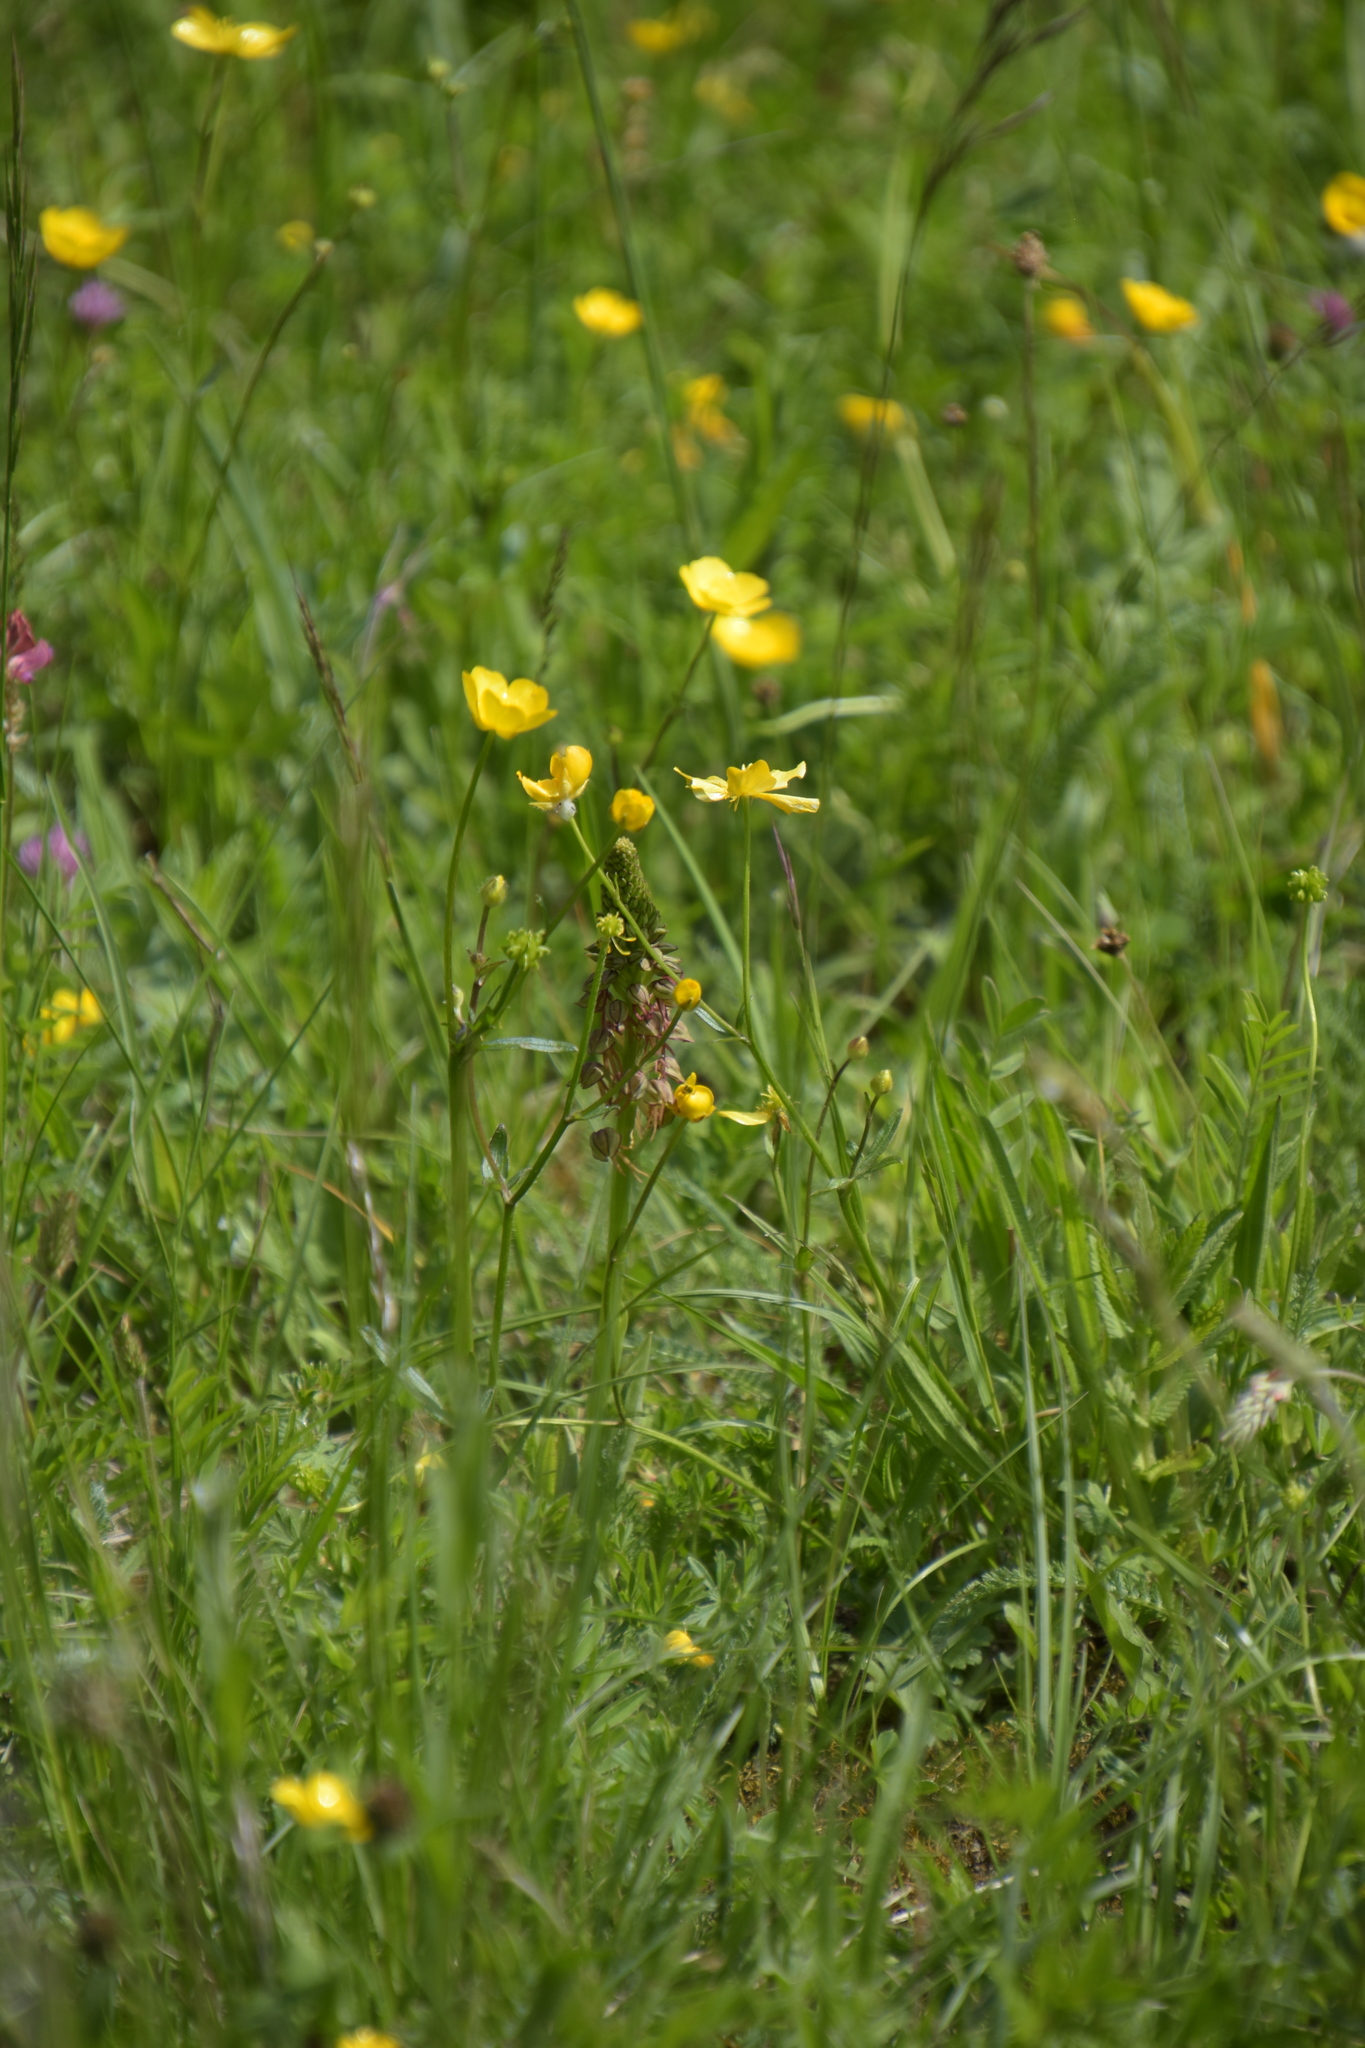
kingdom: Plantae
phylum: Tracheophyta
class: Liliopsida
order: Asparagales
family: Orchidaceae
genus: Orchis
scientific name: Orchis anthropophora
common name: Man orchid
